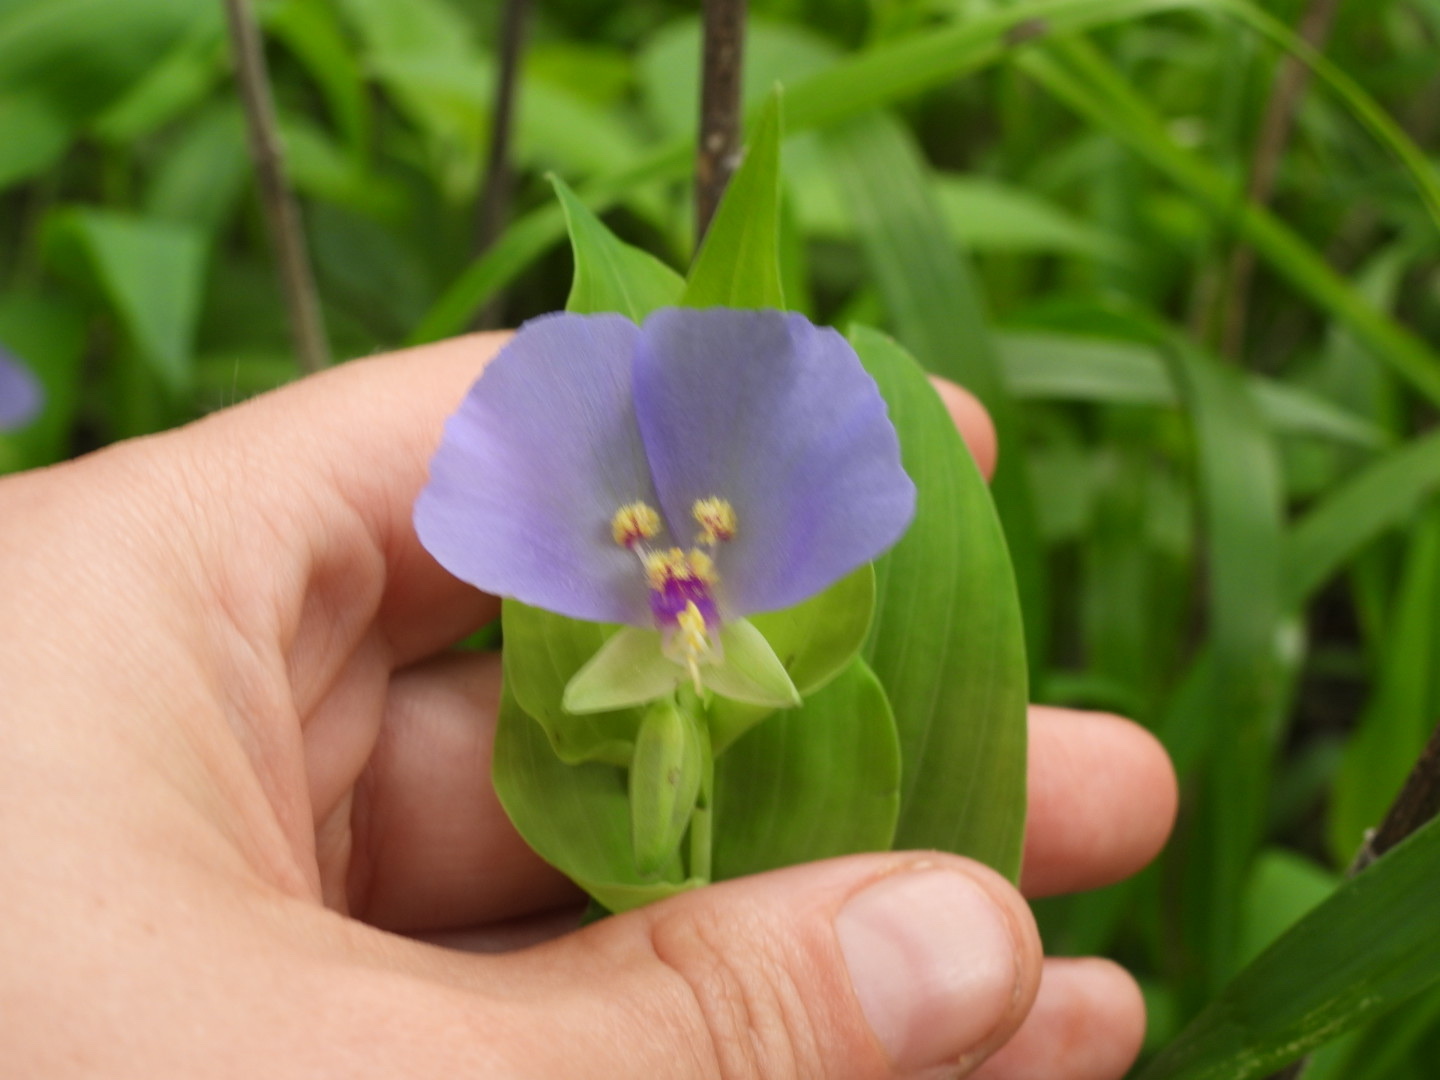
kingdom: Plantae
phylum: Tracheophyta
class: Liliopsida
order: Commelinales
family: Commelinaceae
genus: Tinantia
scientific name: Tinantia anomala
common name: False dayflower
